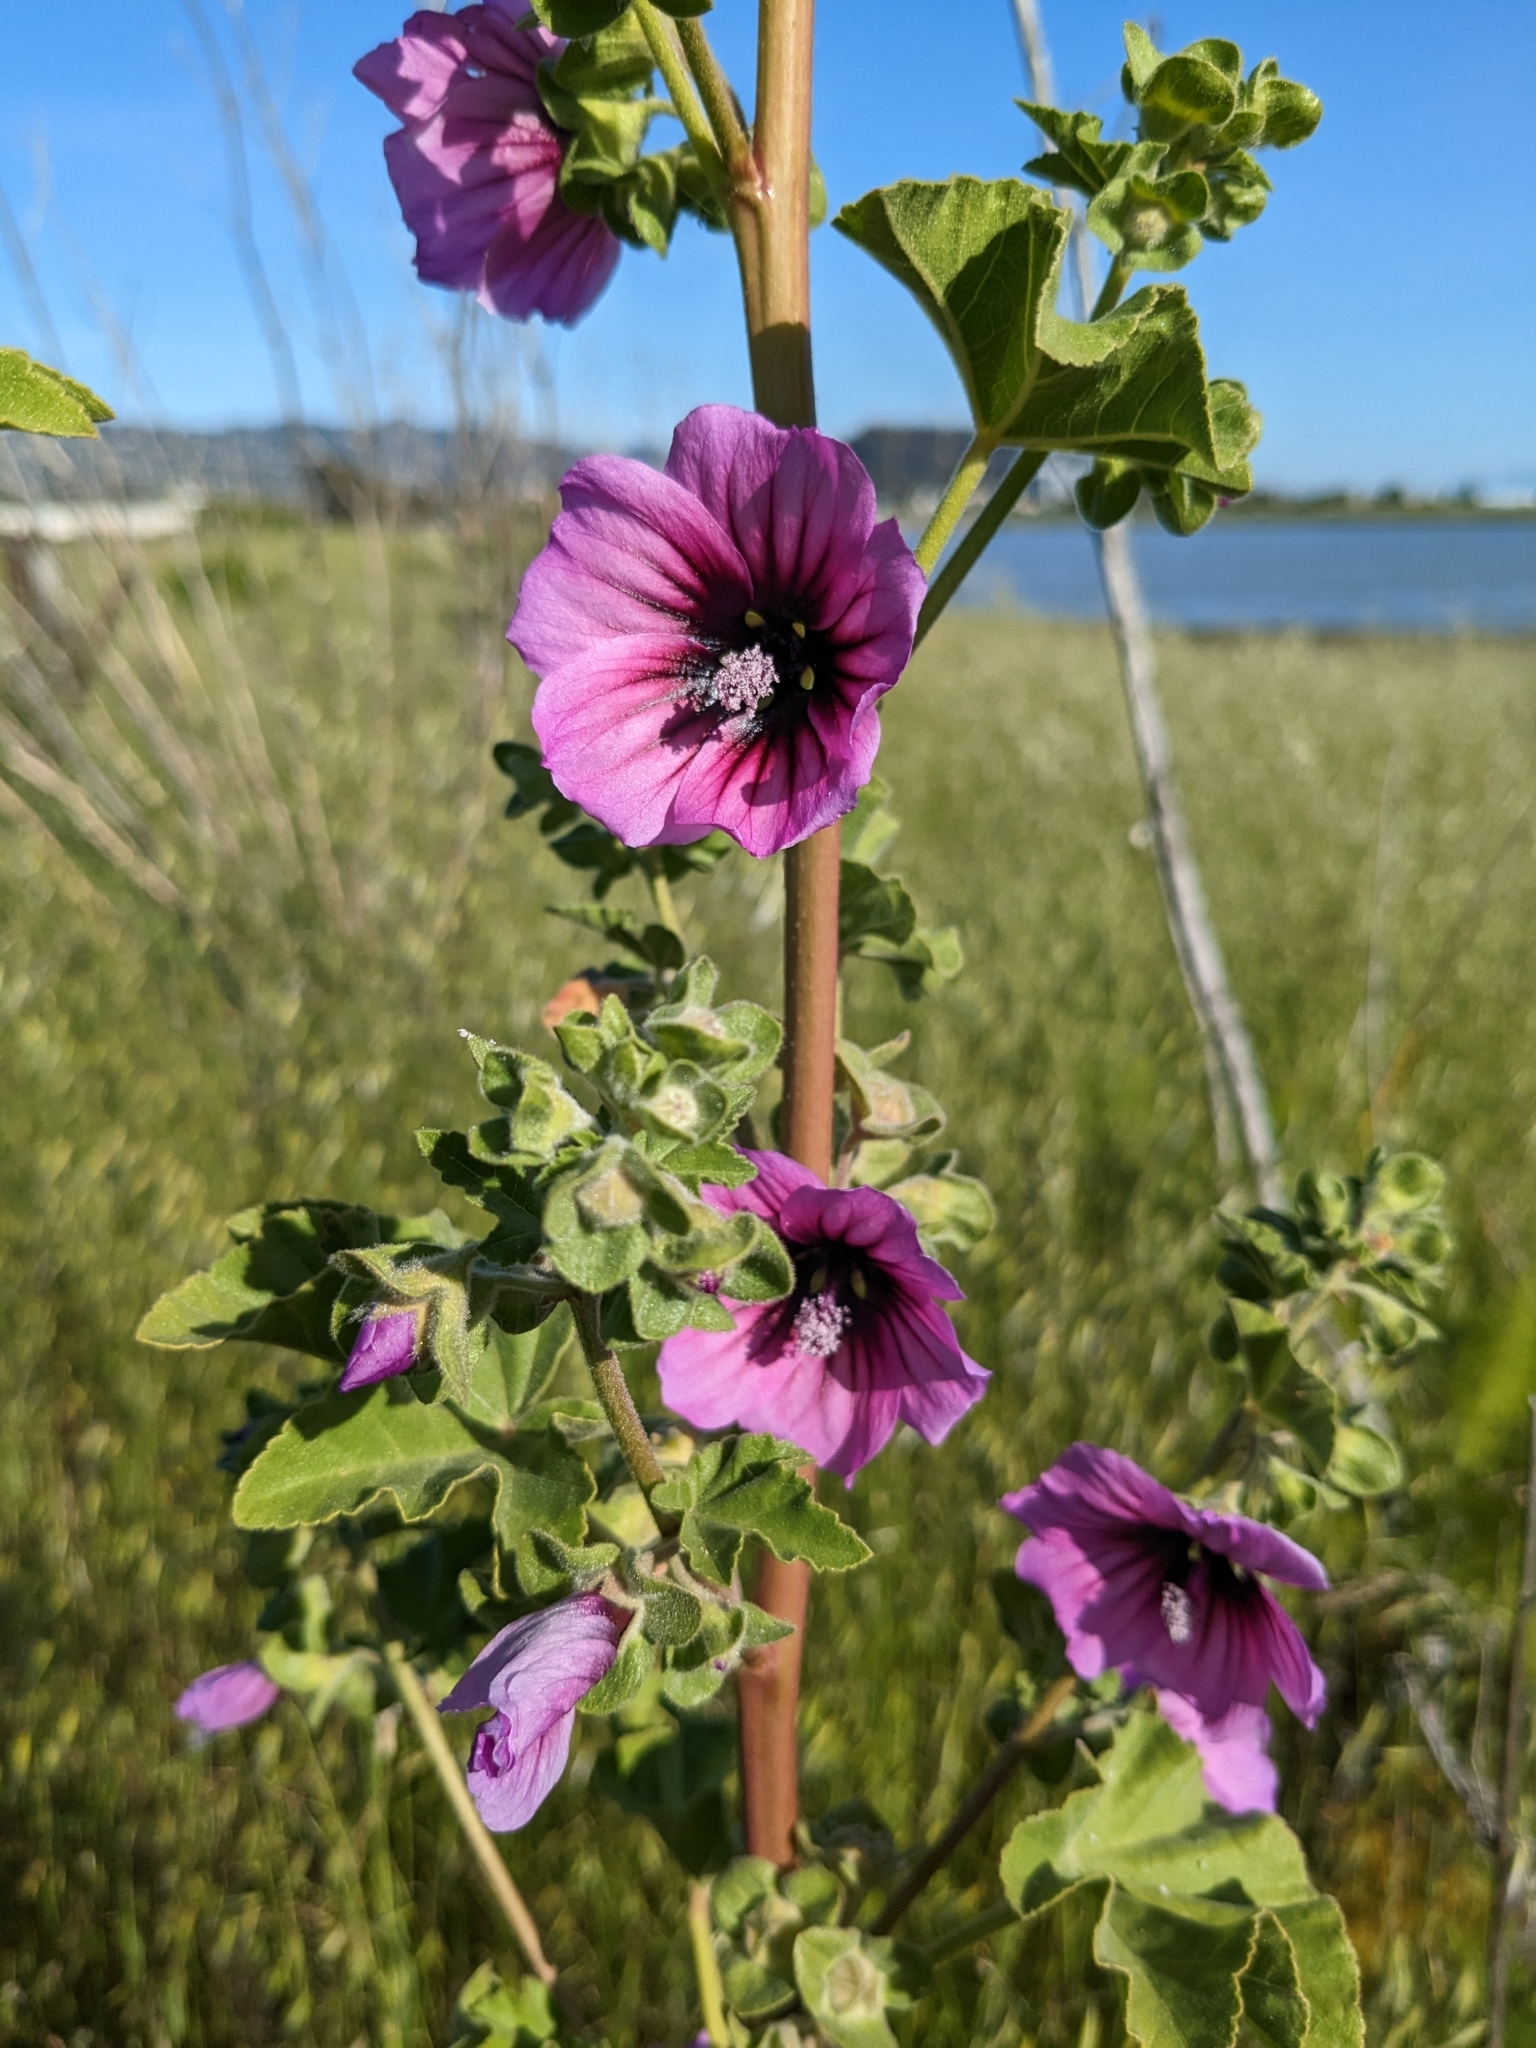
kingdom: Plantae
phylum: Tracheophyta
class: Magnoliopsida
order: Malvales
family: Malvaceae
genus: Malva
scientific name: Malva arborea
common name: Tree mallow
